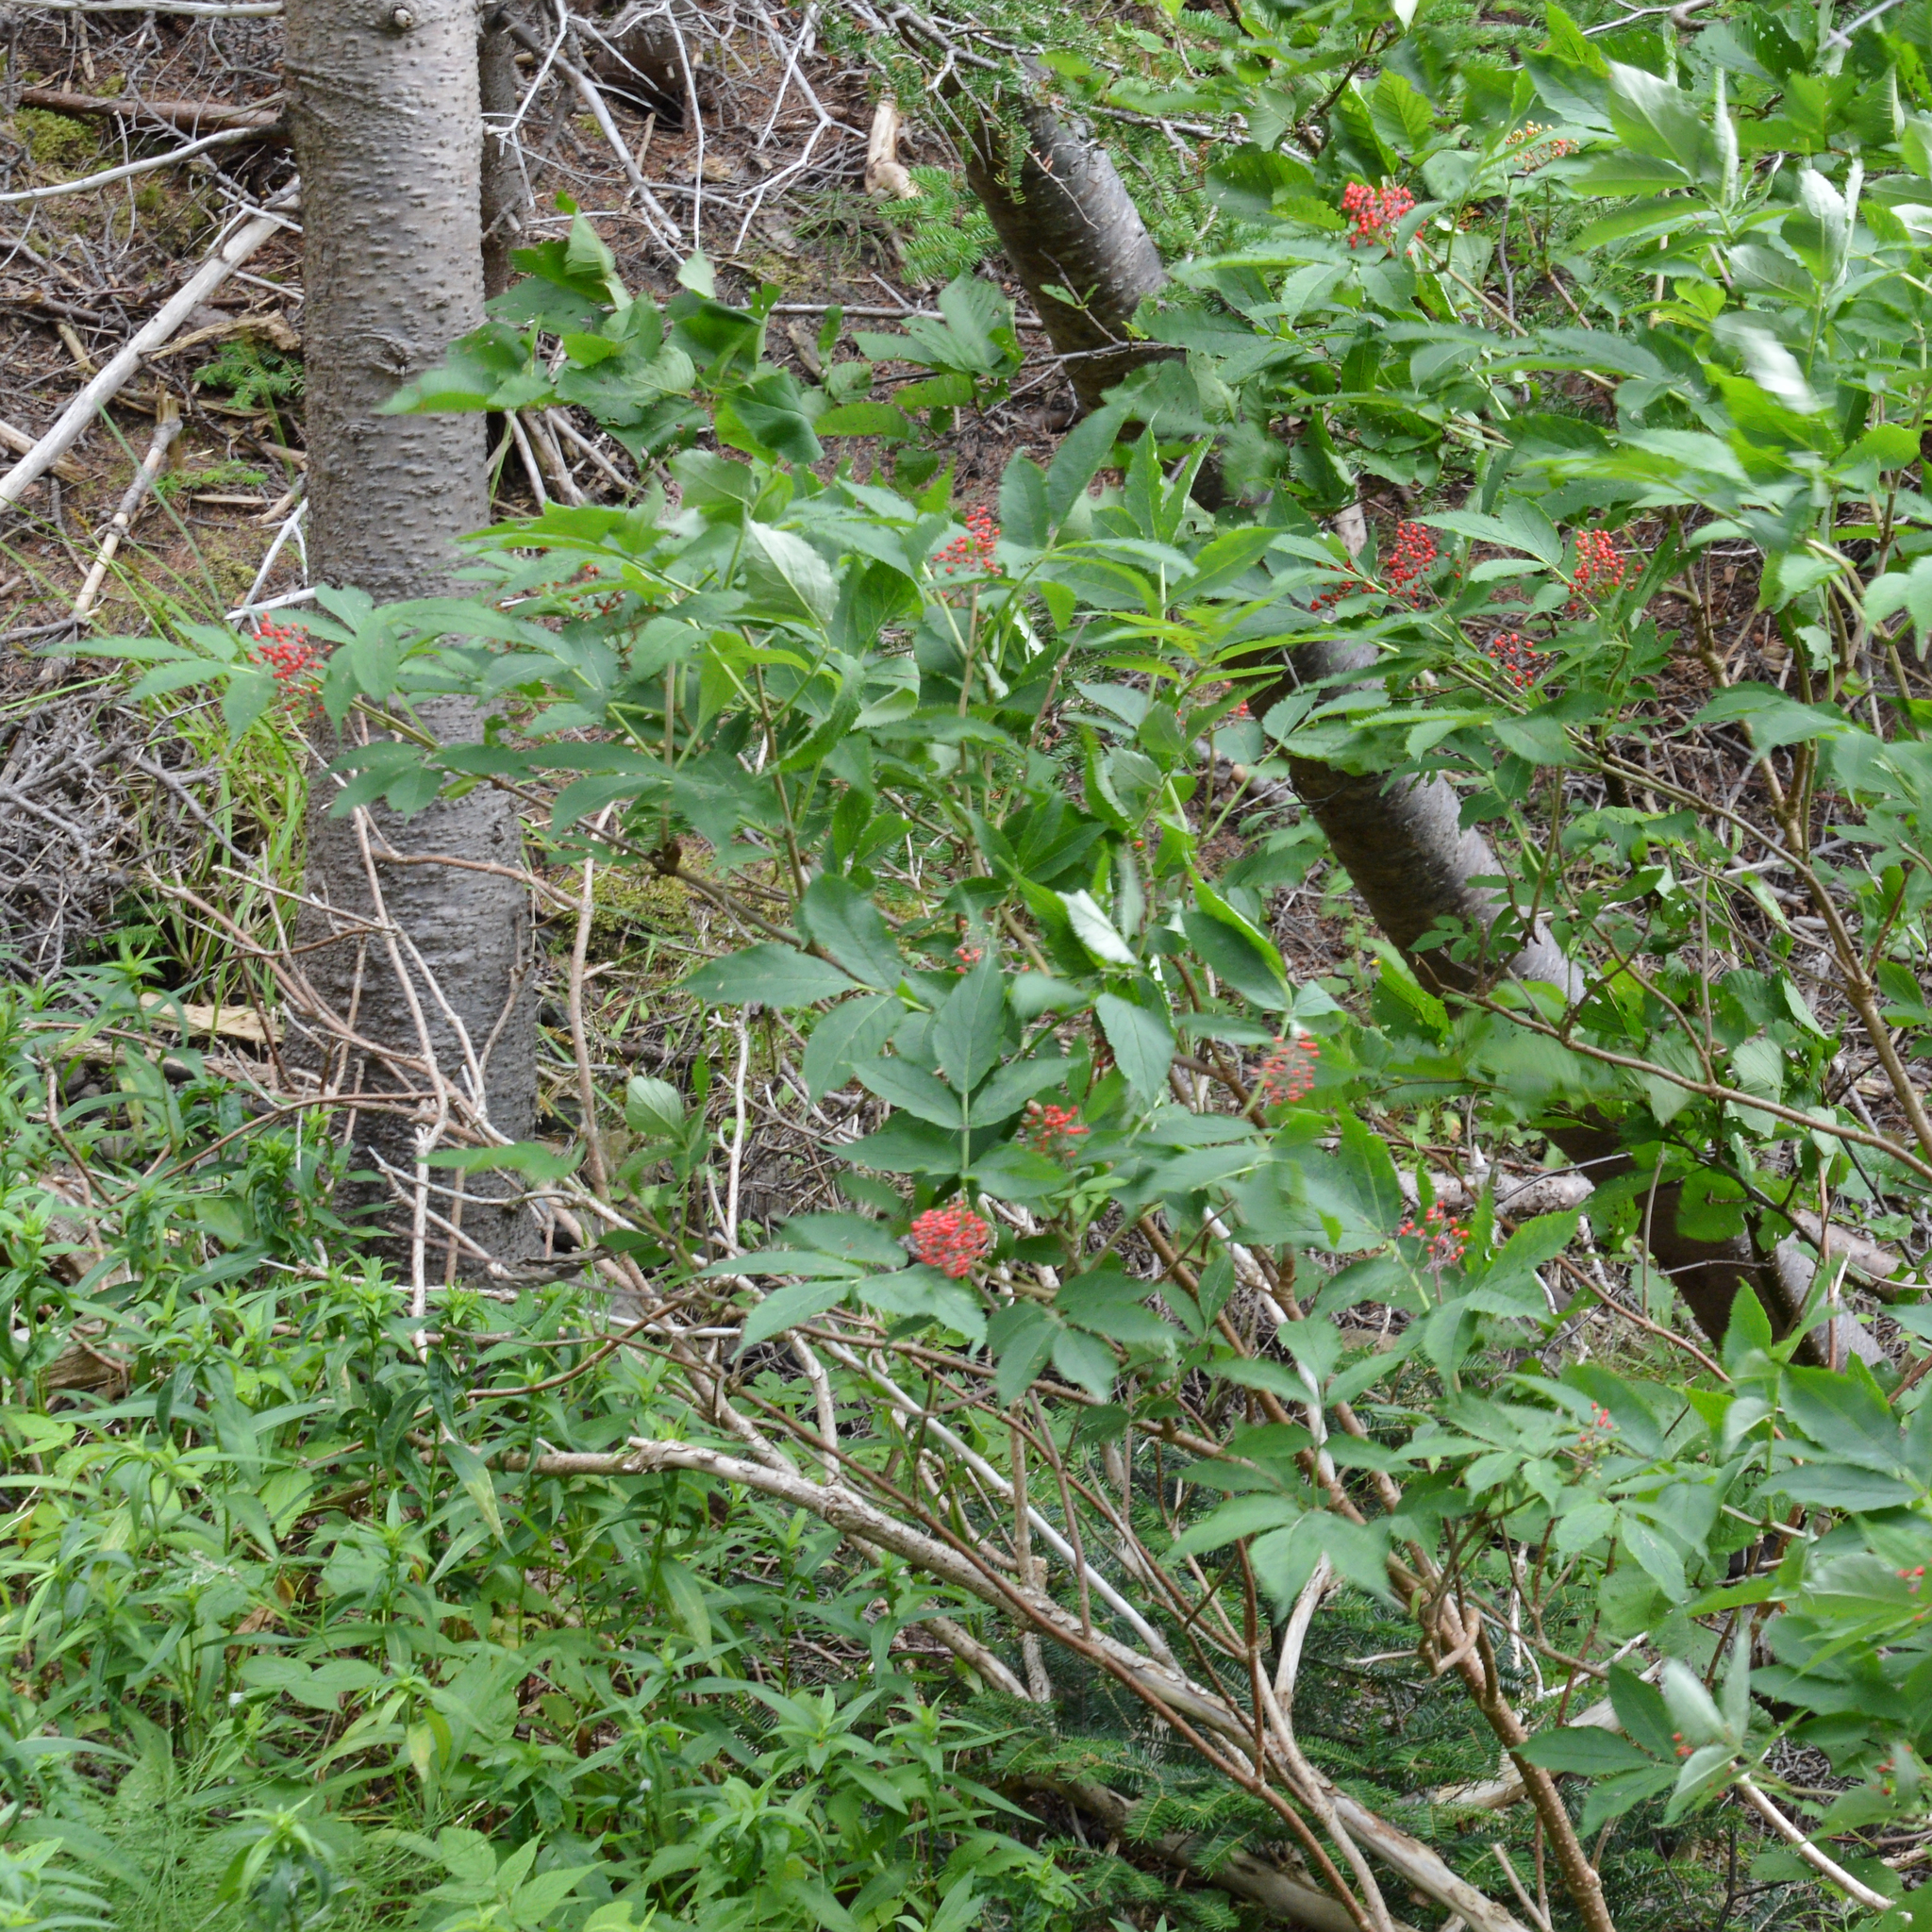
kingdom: Plantae
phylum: Tracheophyta
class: Magnoliopsida
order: Dipsacales
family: Viburnaceae
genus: Sambucus
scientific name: Sambucus racemosa
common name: Red-berried elder
